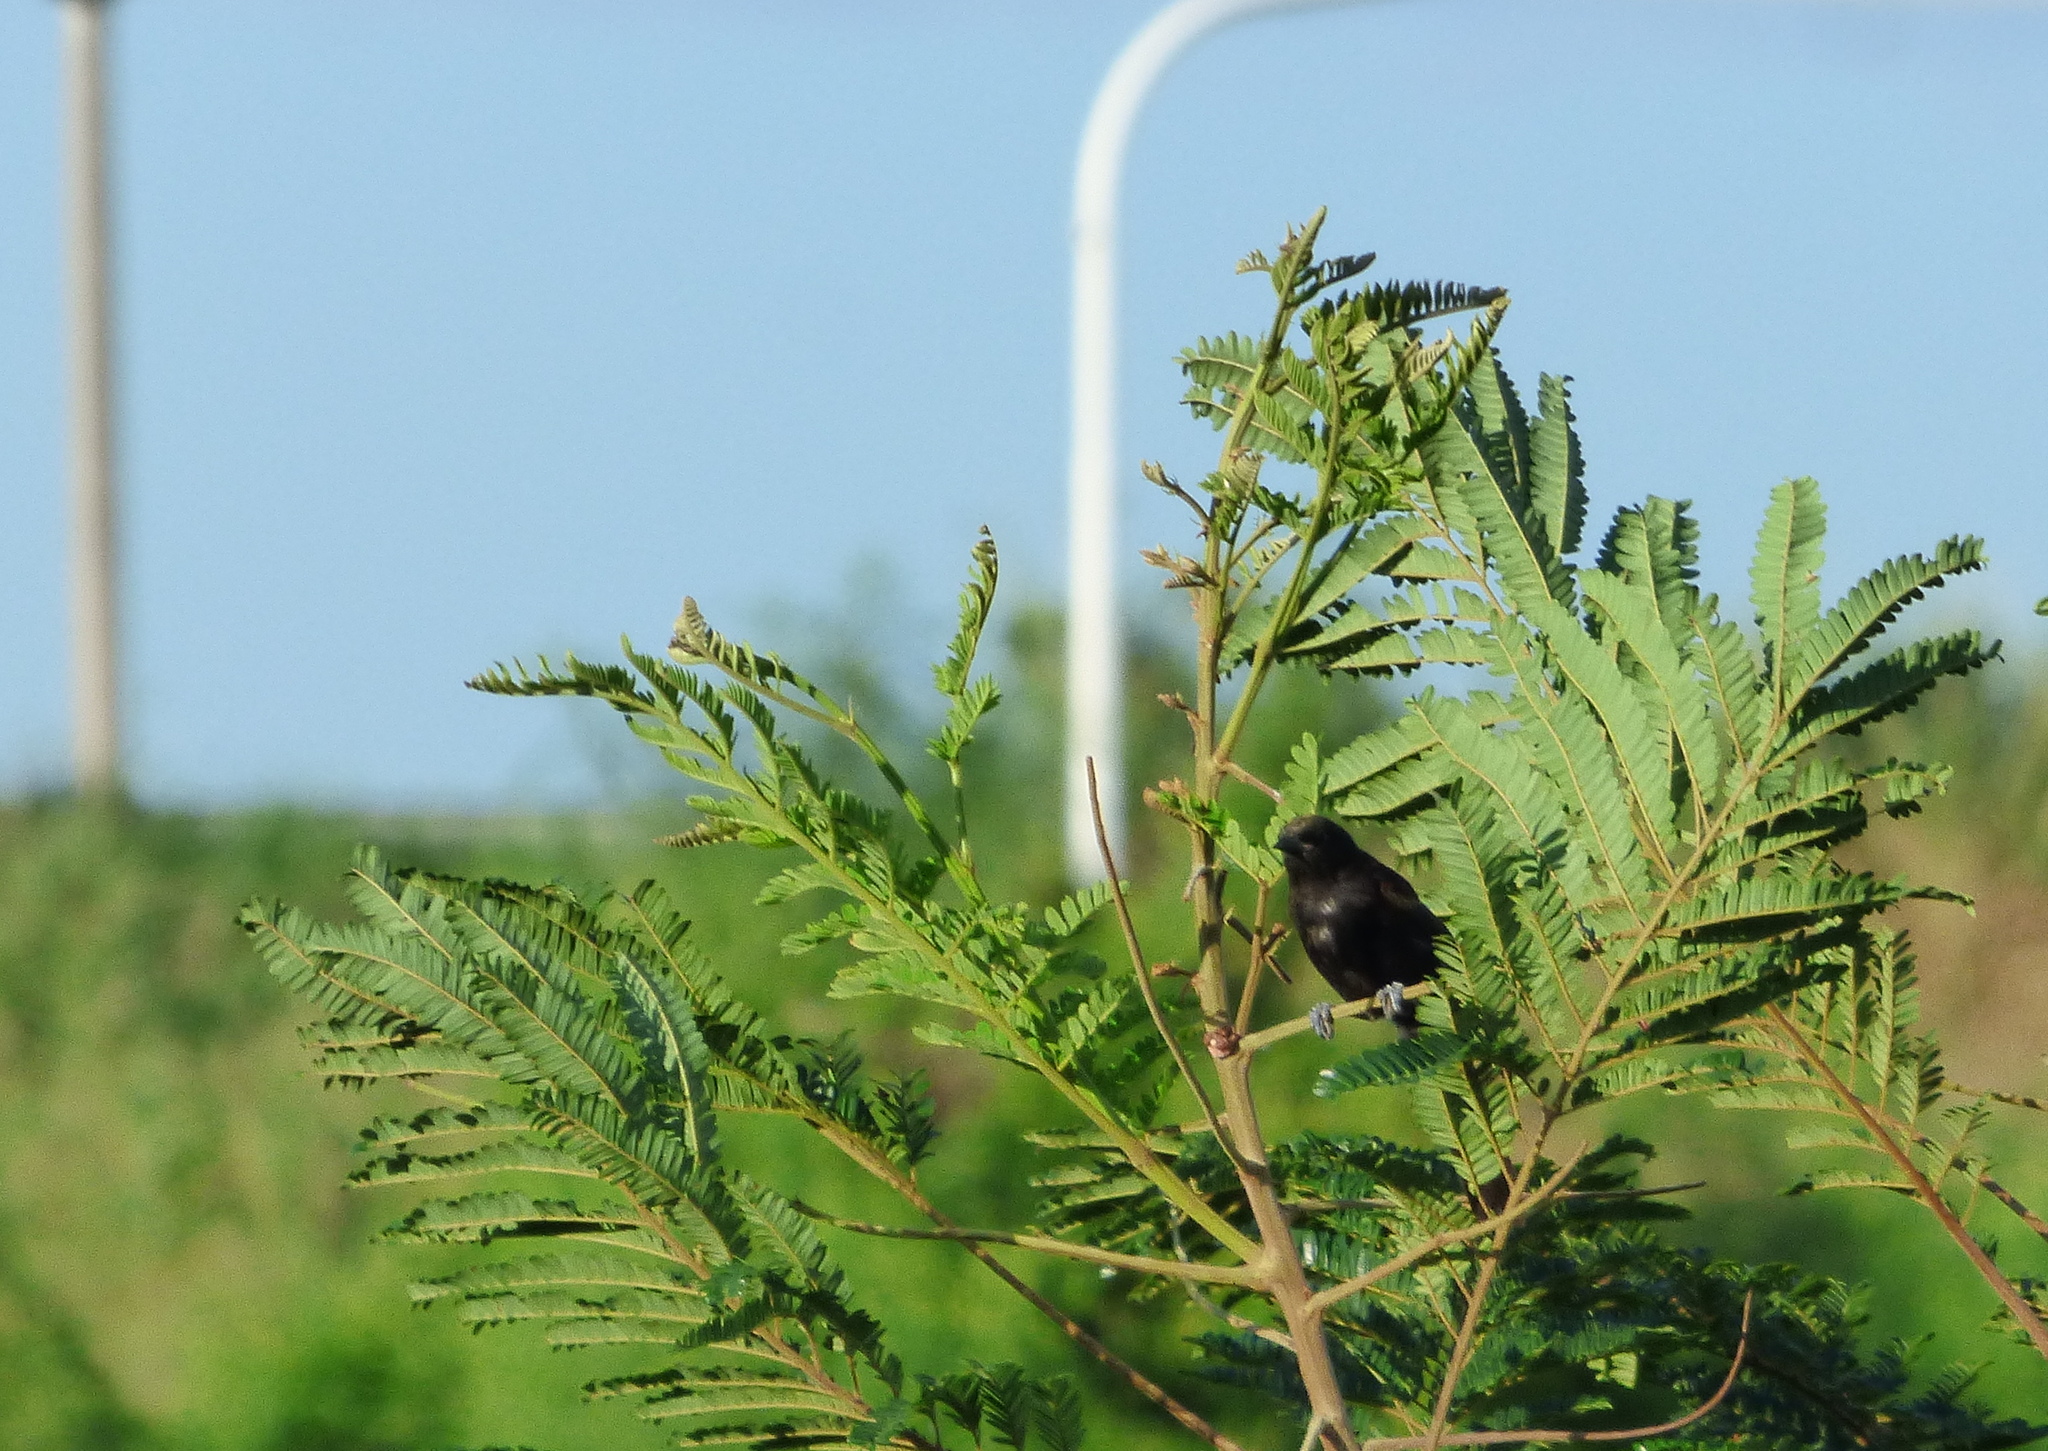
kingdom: Animalia
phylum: Chordata
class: Aves
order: Passeriformes
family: Icteridae
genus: Icterus
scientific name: Icterus cayanensis
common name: Epaulet oriole
